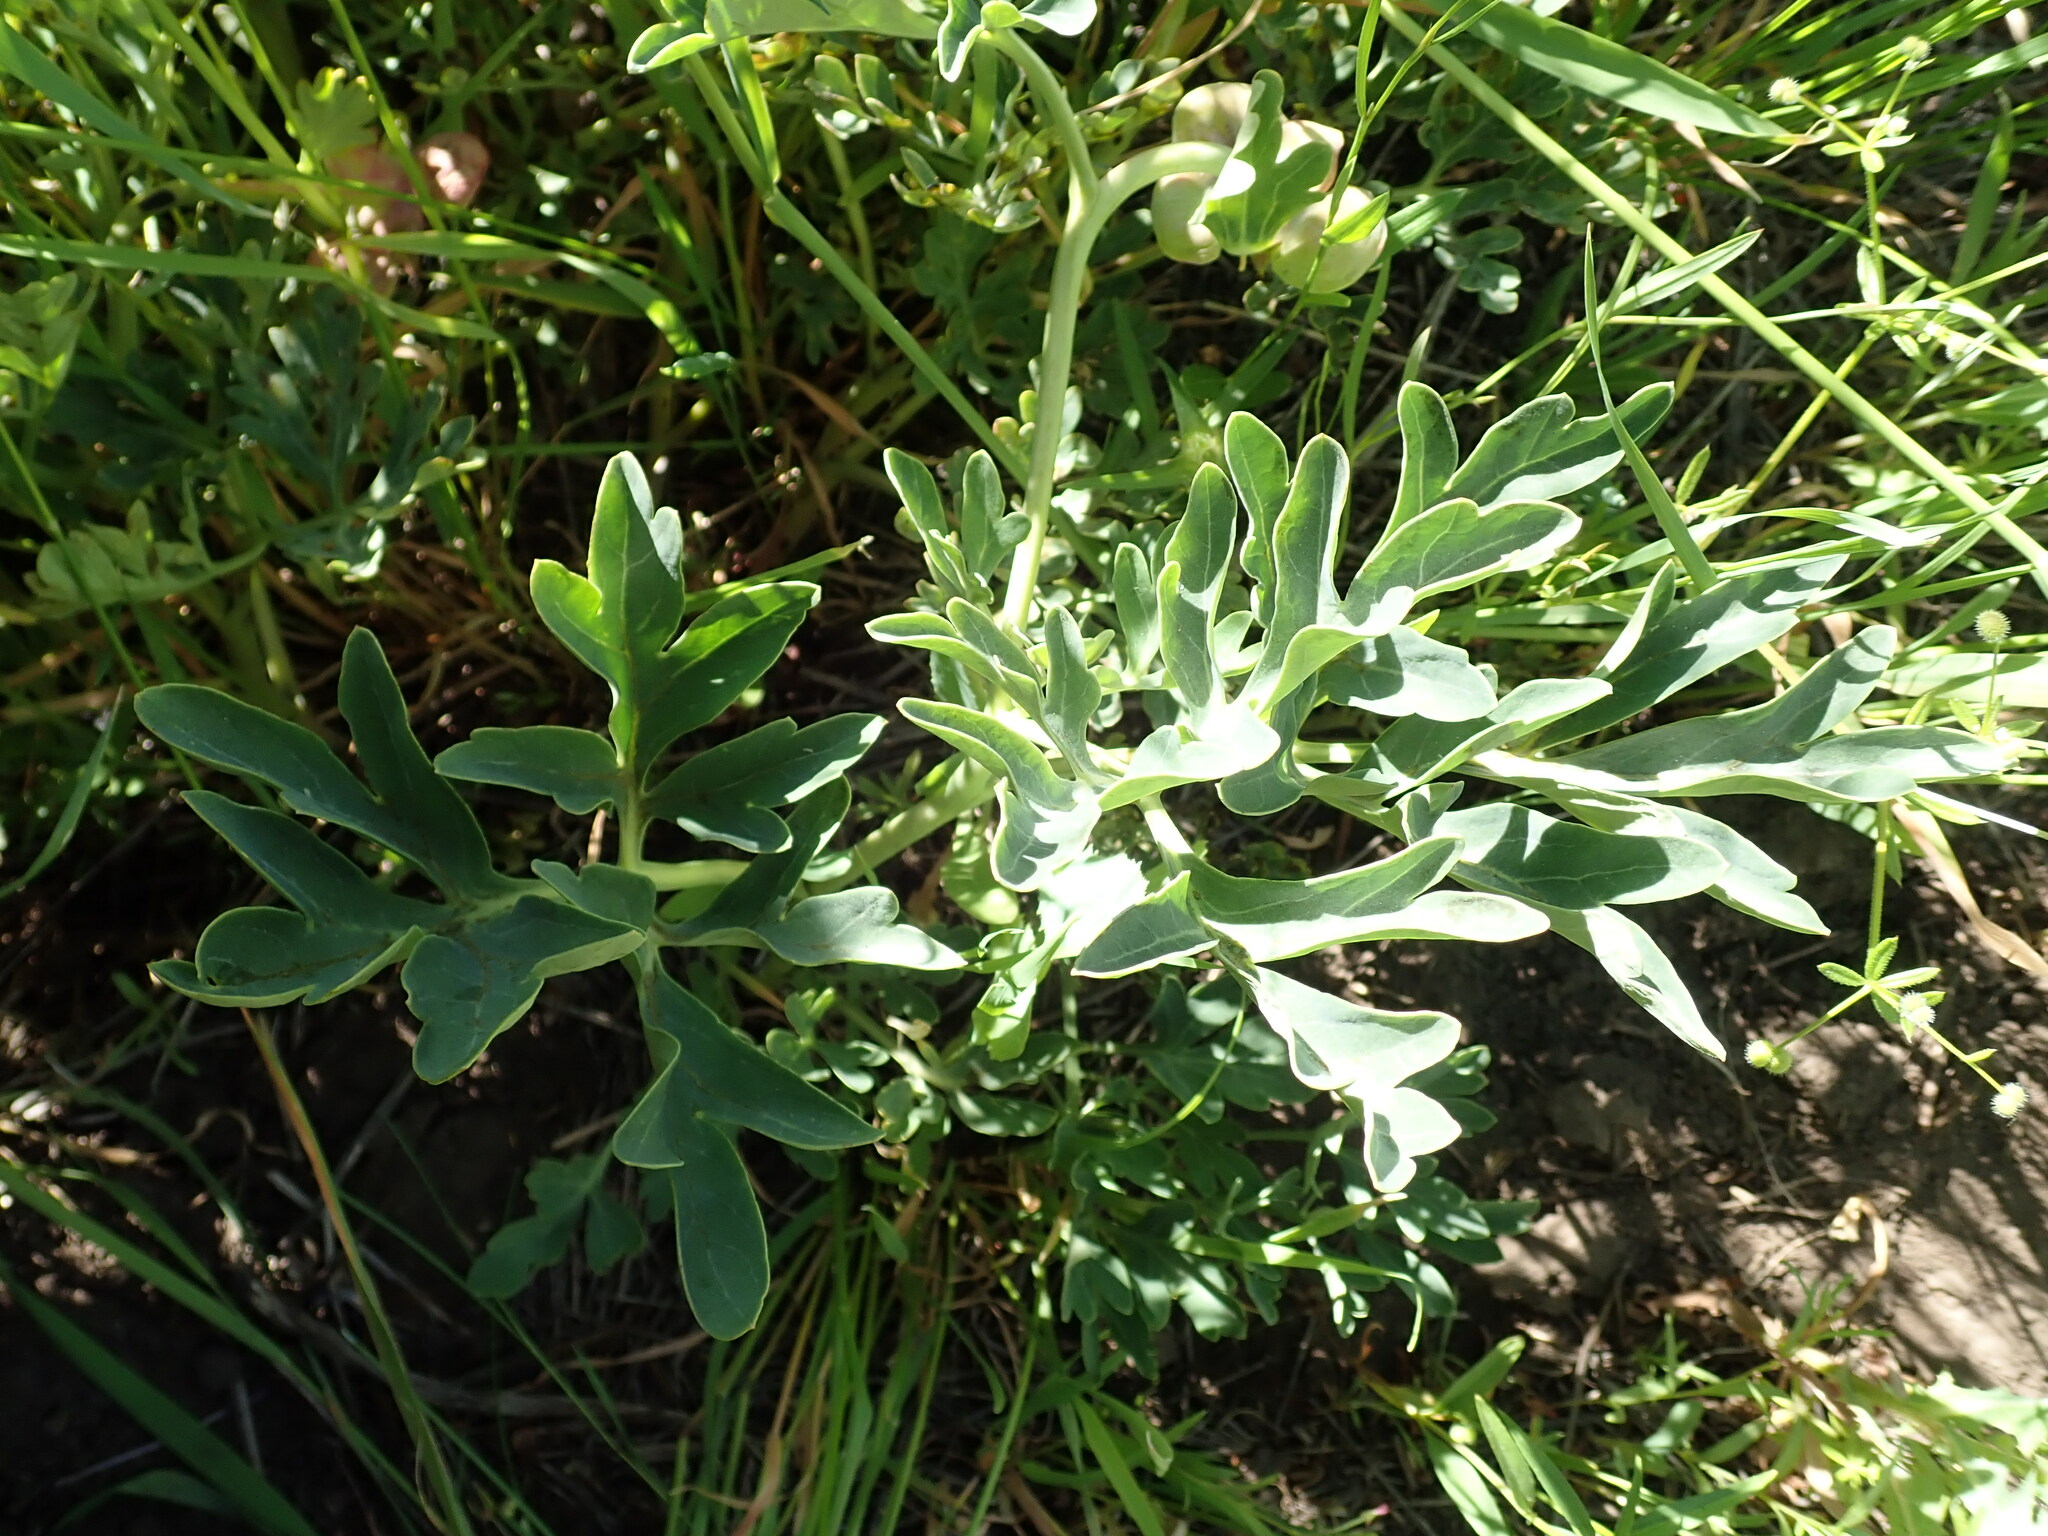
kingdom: Plantae
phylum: Tracheophyta
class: Magnoliopsida
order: Saxifragales
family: Paeoniaceae
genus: Paeonia
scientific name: Paeonia brownii
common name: Brown's peony
